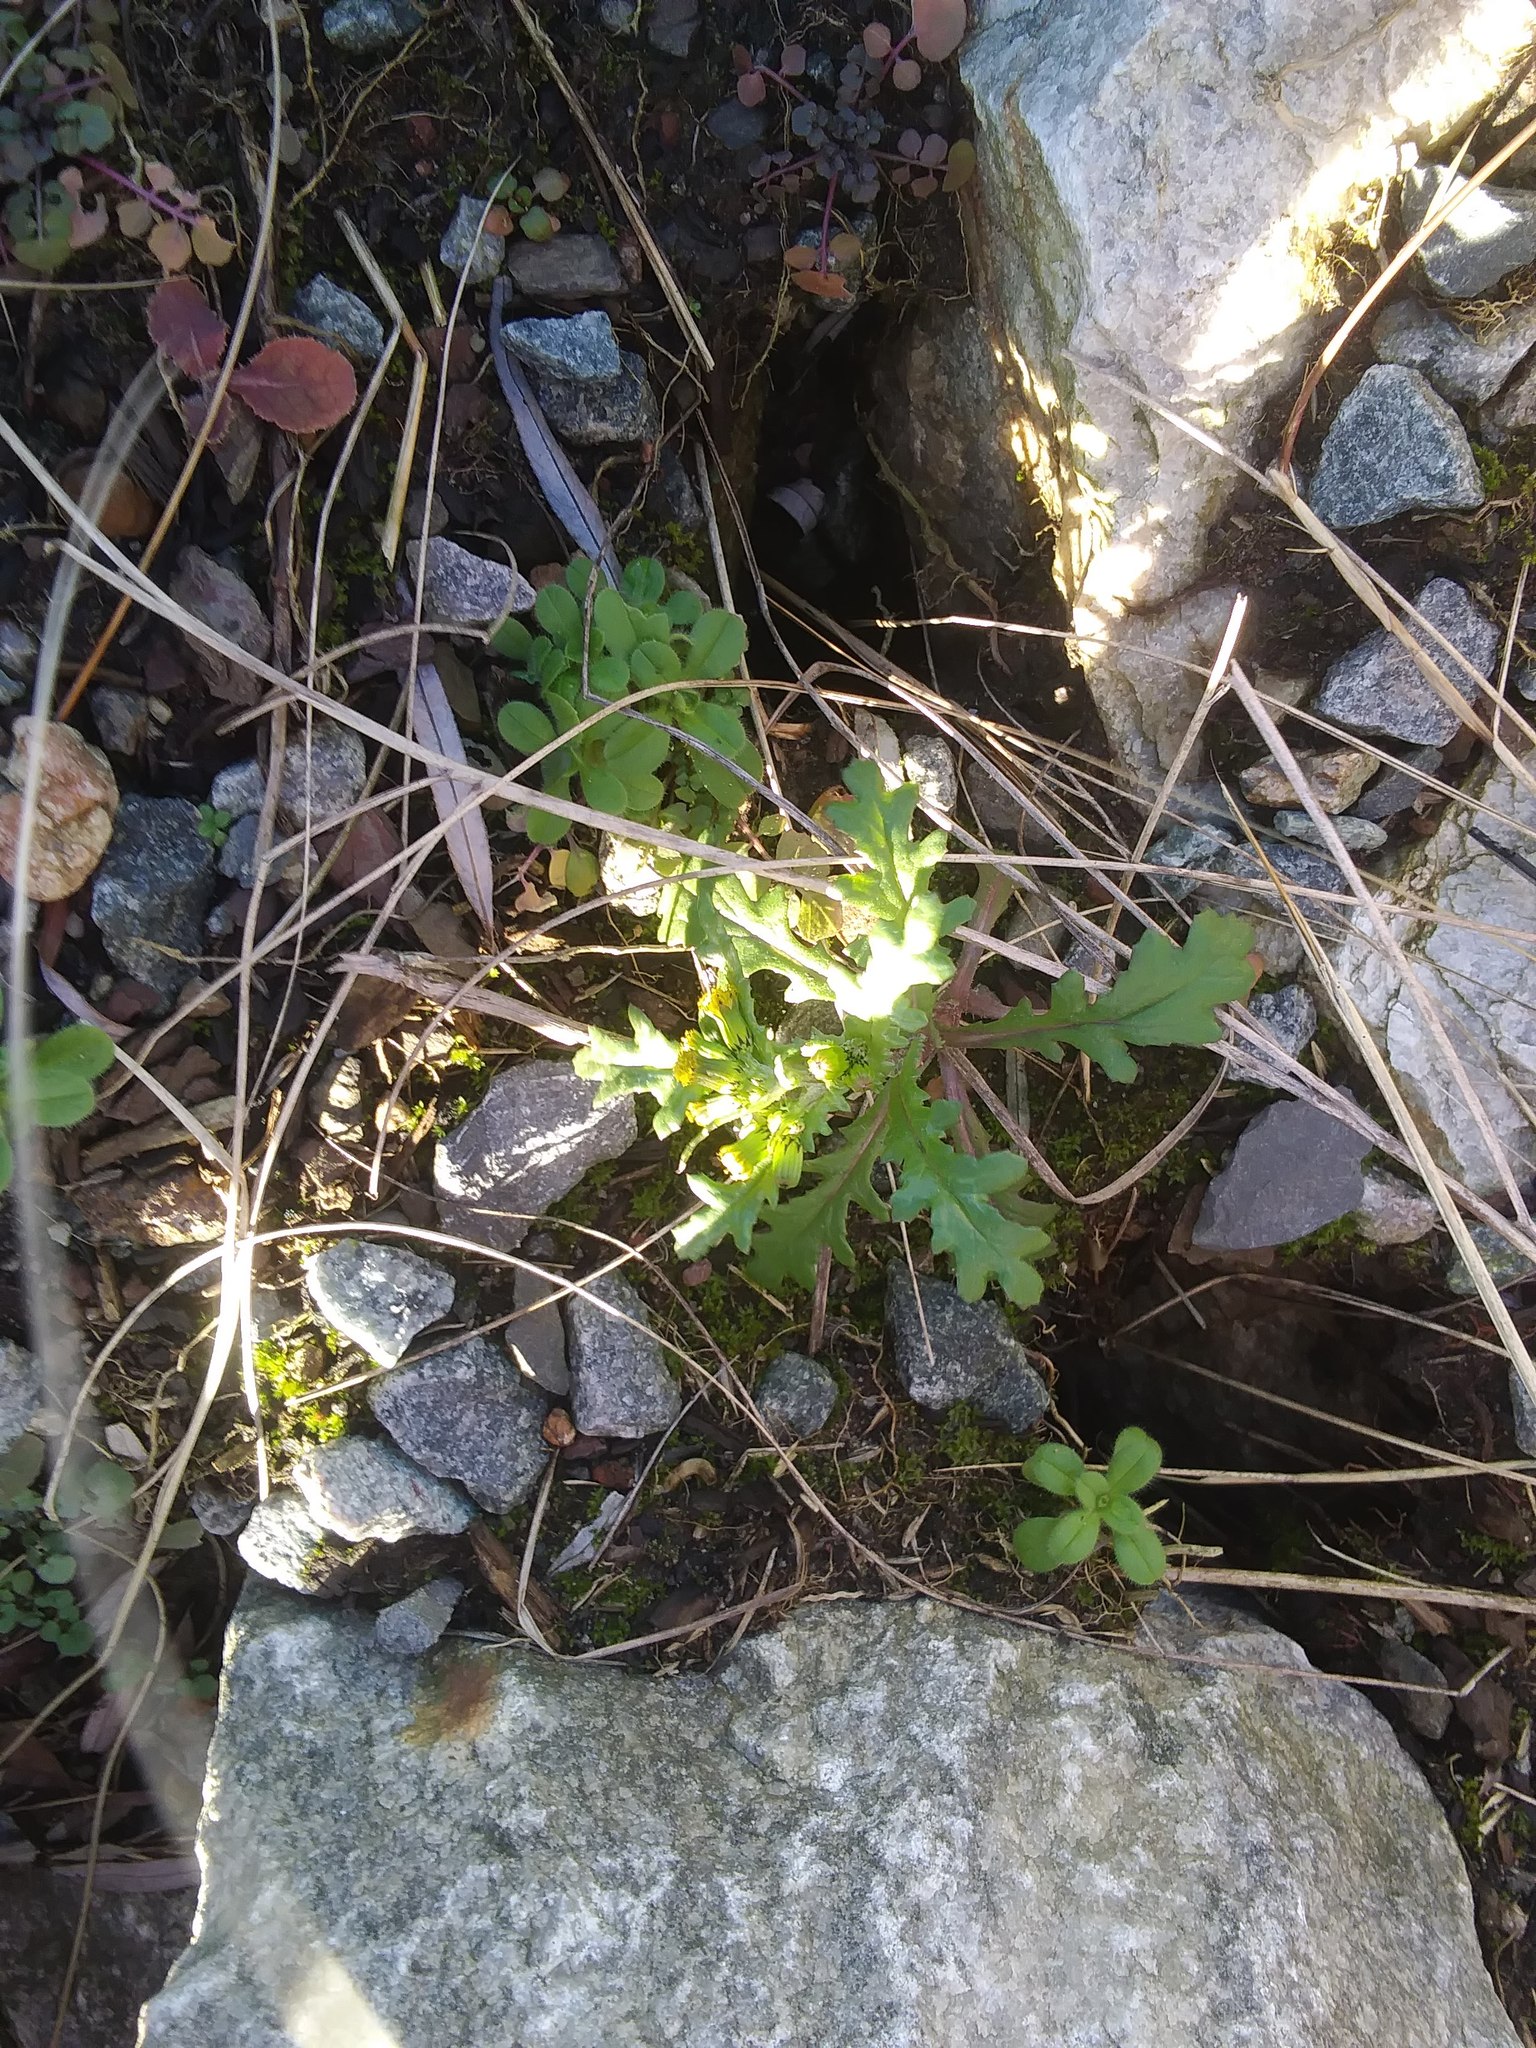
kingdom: Plantae
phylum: Tracheophyta
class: Magnoliopsida
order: Asterales
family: Asteraceae
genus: Senecio
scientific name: Senecio vulgaris
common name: Old-man-in-the-spring
